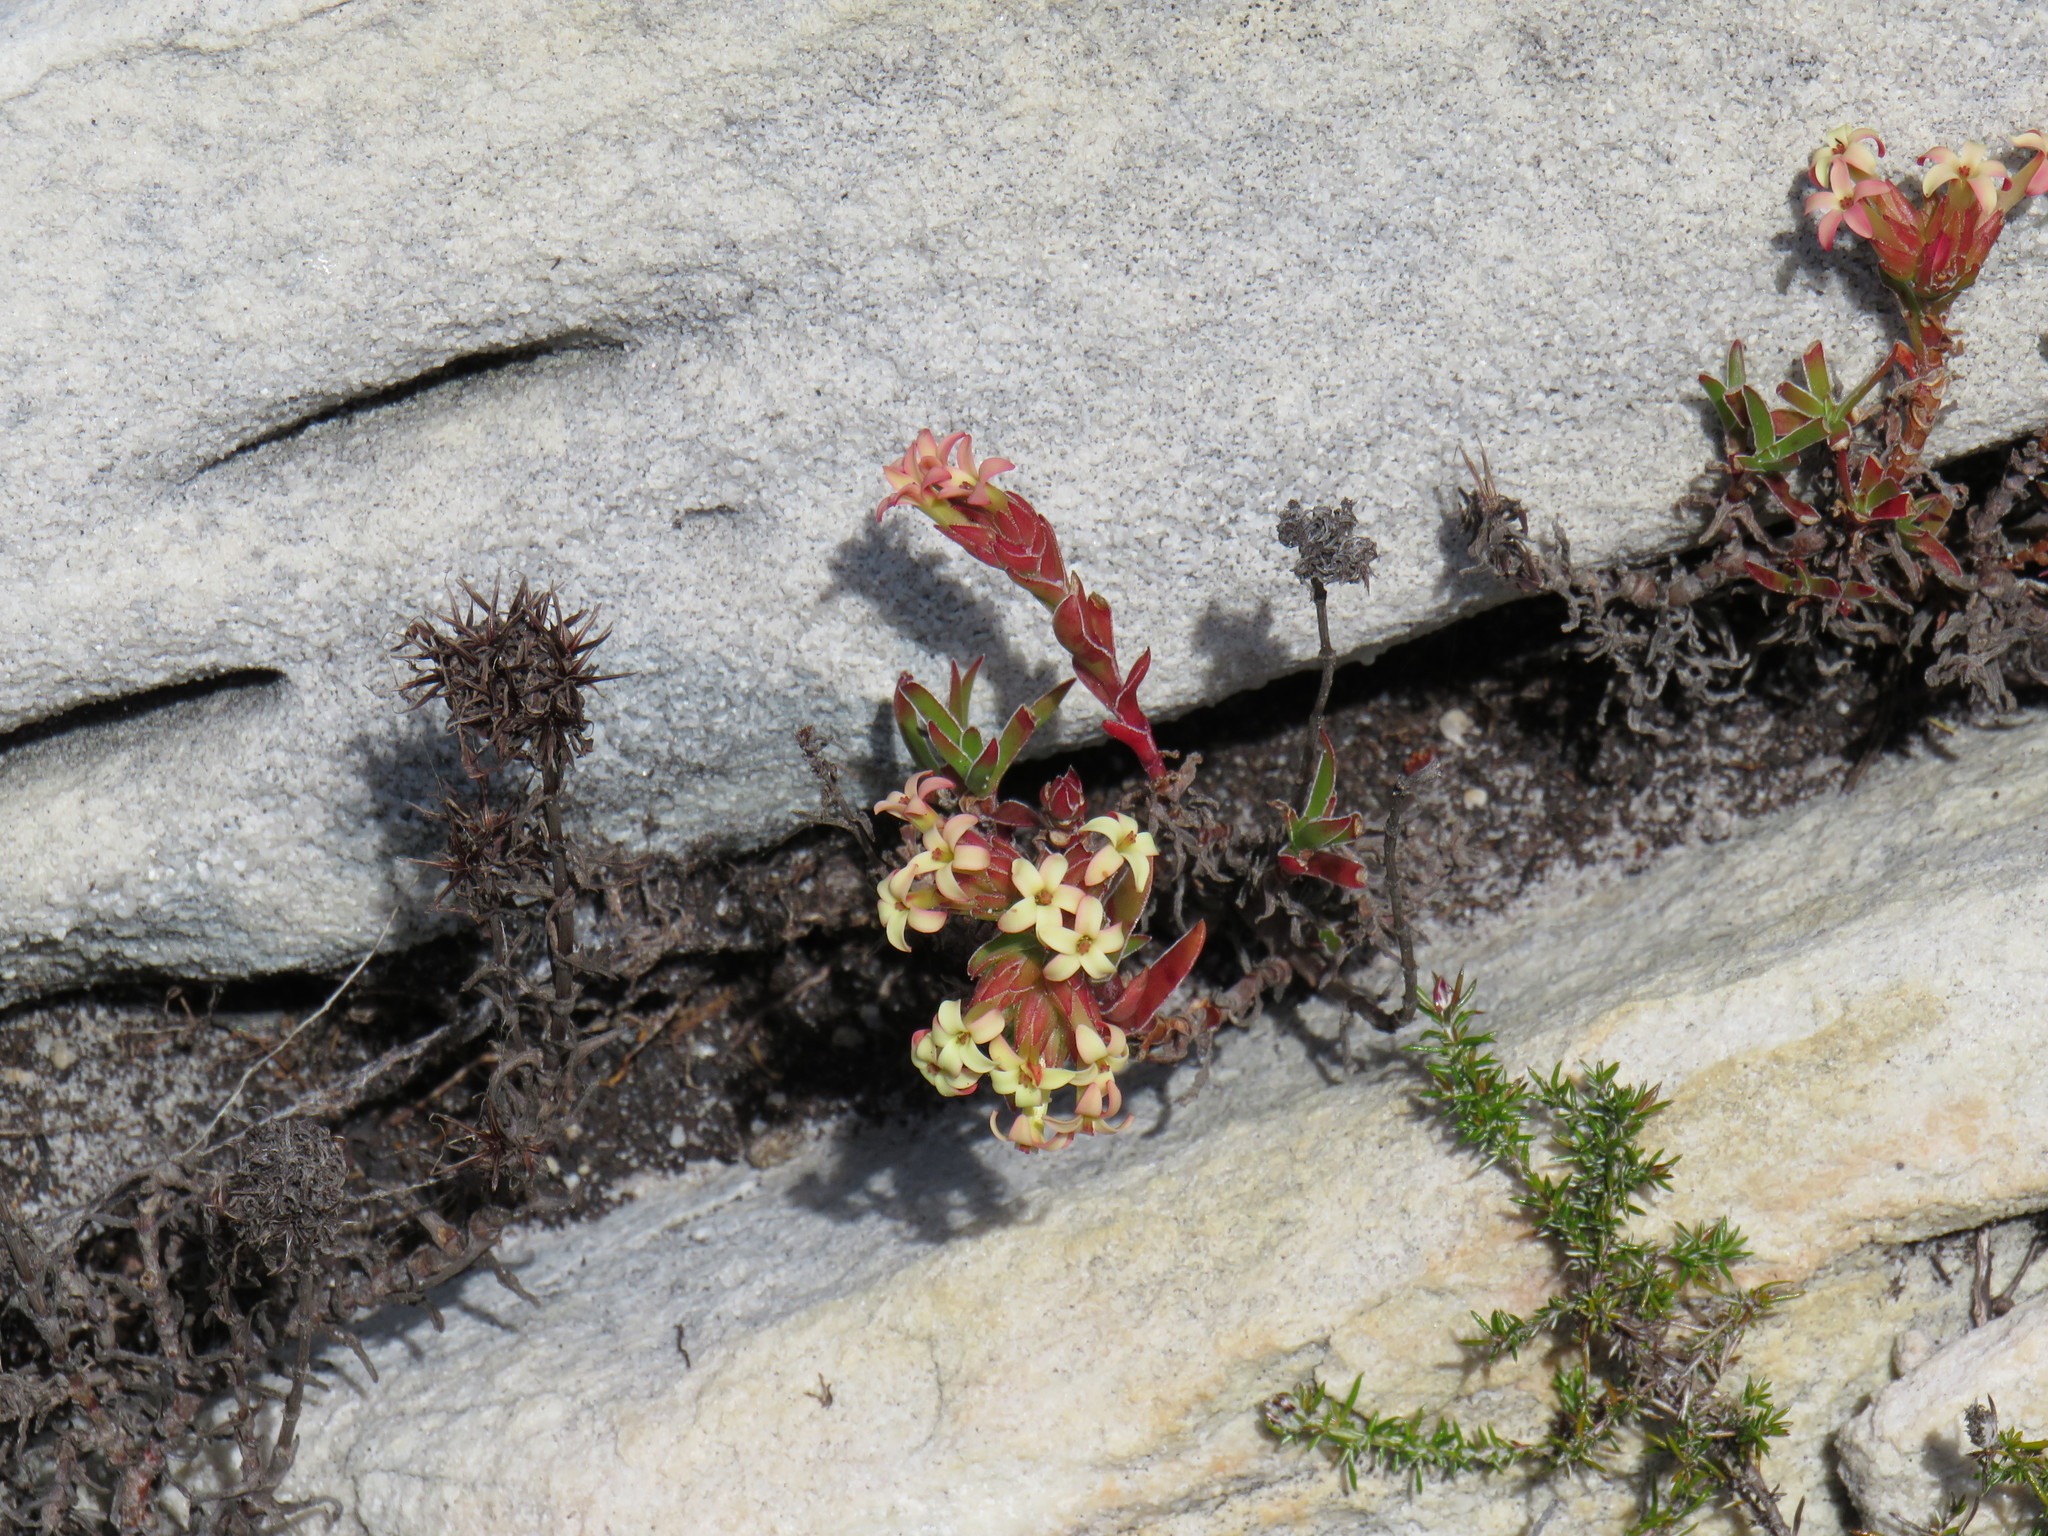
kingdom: Plantae
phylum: Tracheophyta
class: Magnoliopsida
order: Saxifragales
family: Crassulaceae
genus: Crassula
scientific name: Crassula fascicularis
